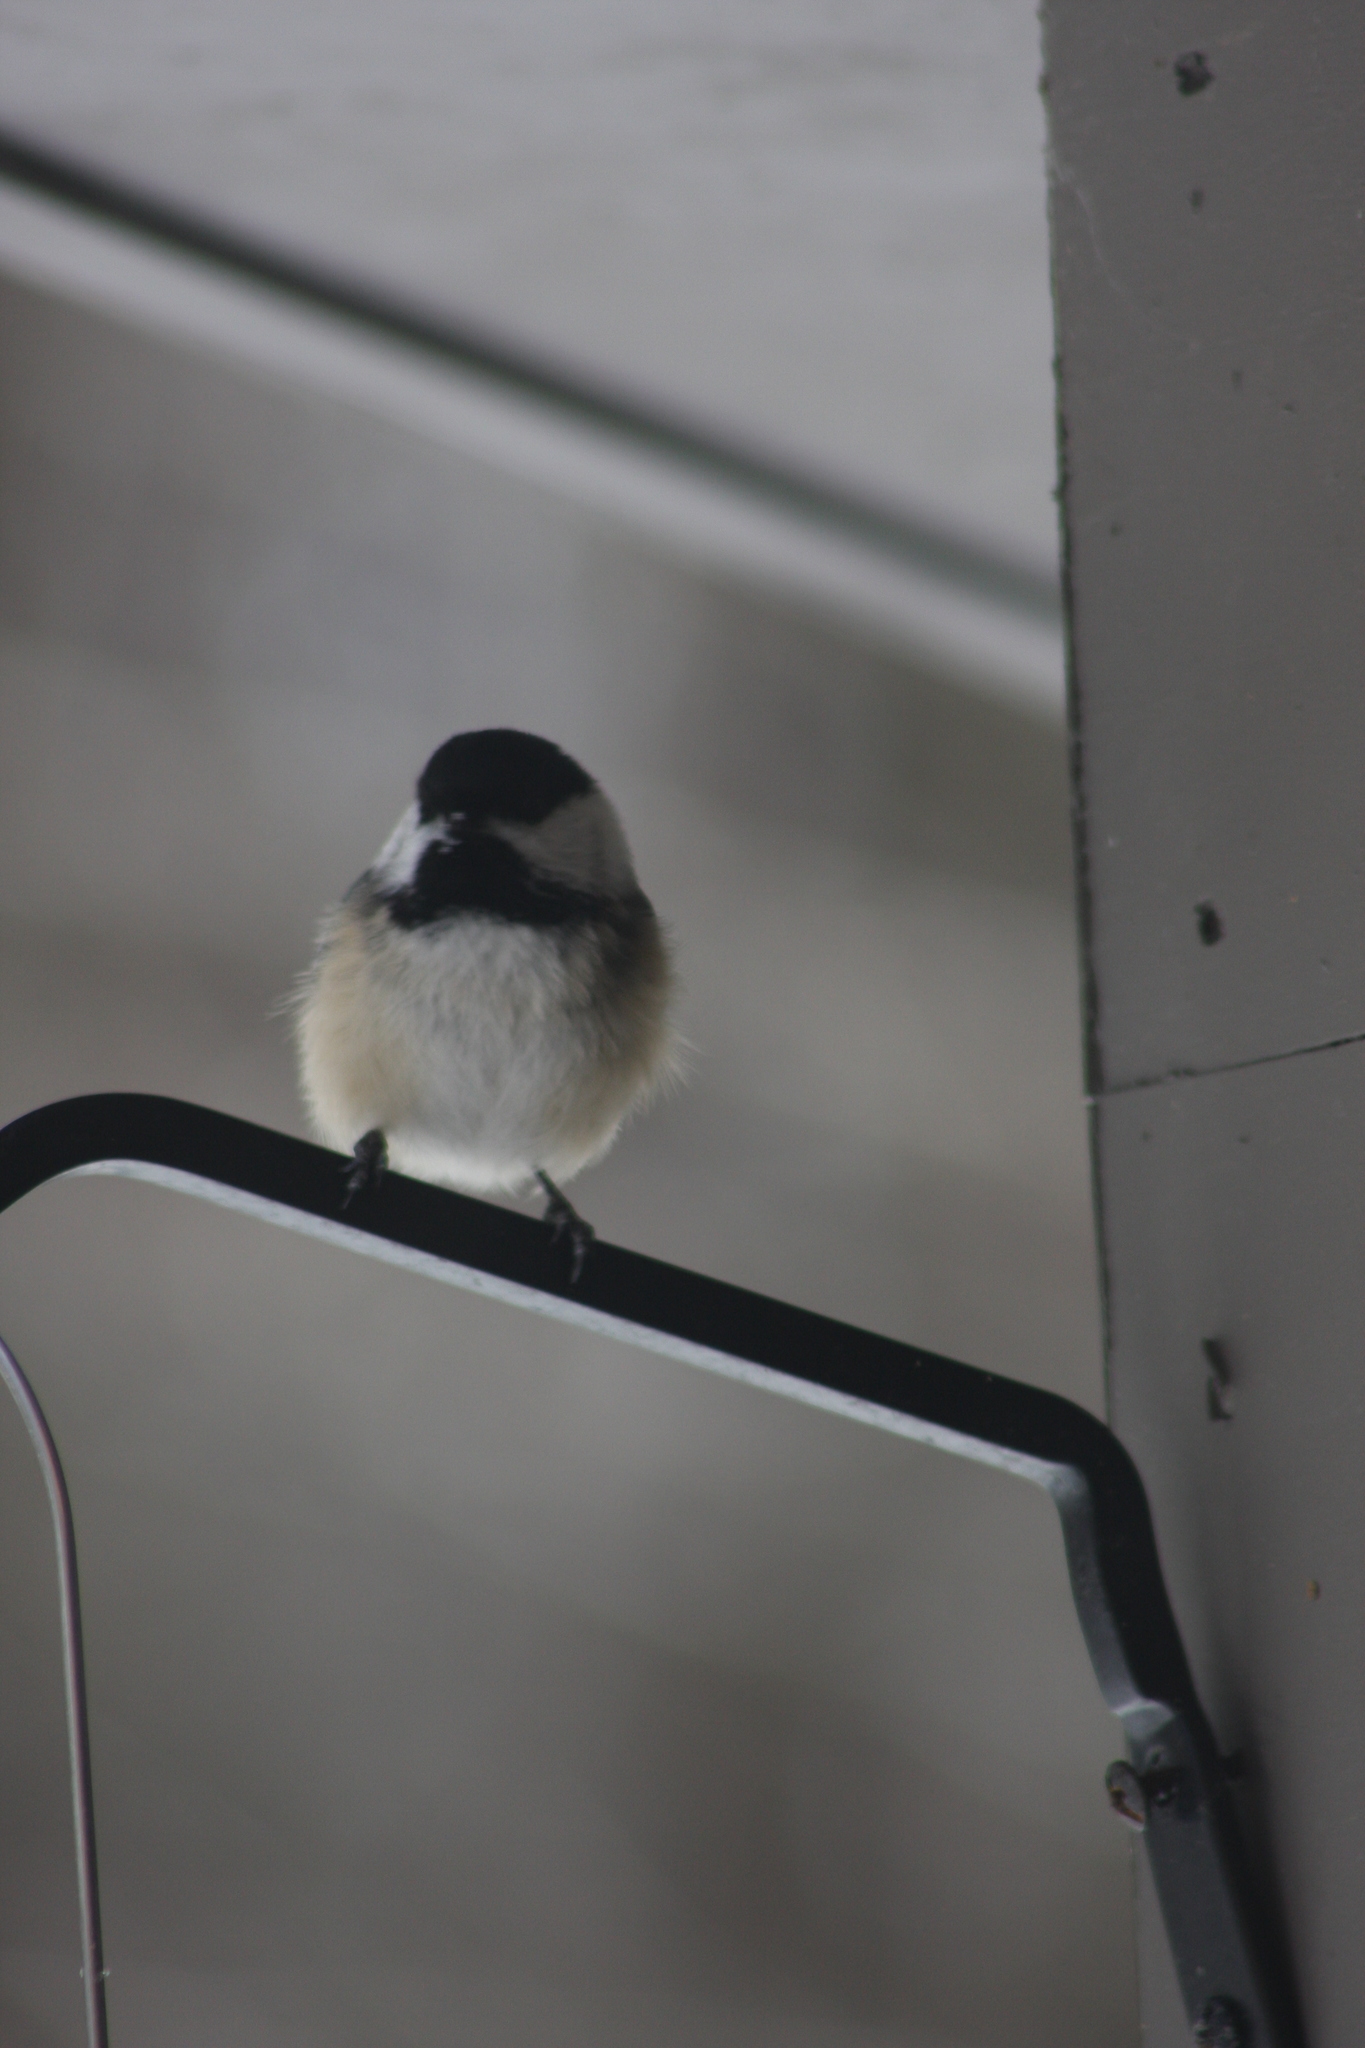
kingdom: Animalia
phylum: Chordata
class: Aves
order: Passeriformes
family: Paridae
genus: Poecile
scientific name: Poecile atricapillus
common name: Black-capped chickadee
